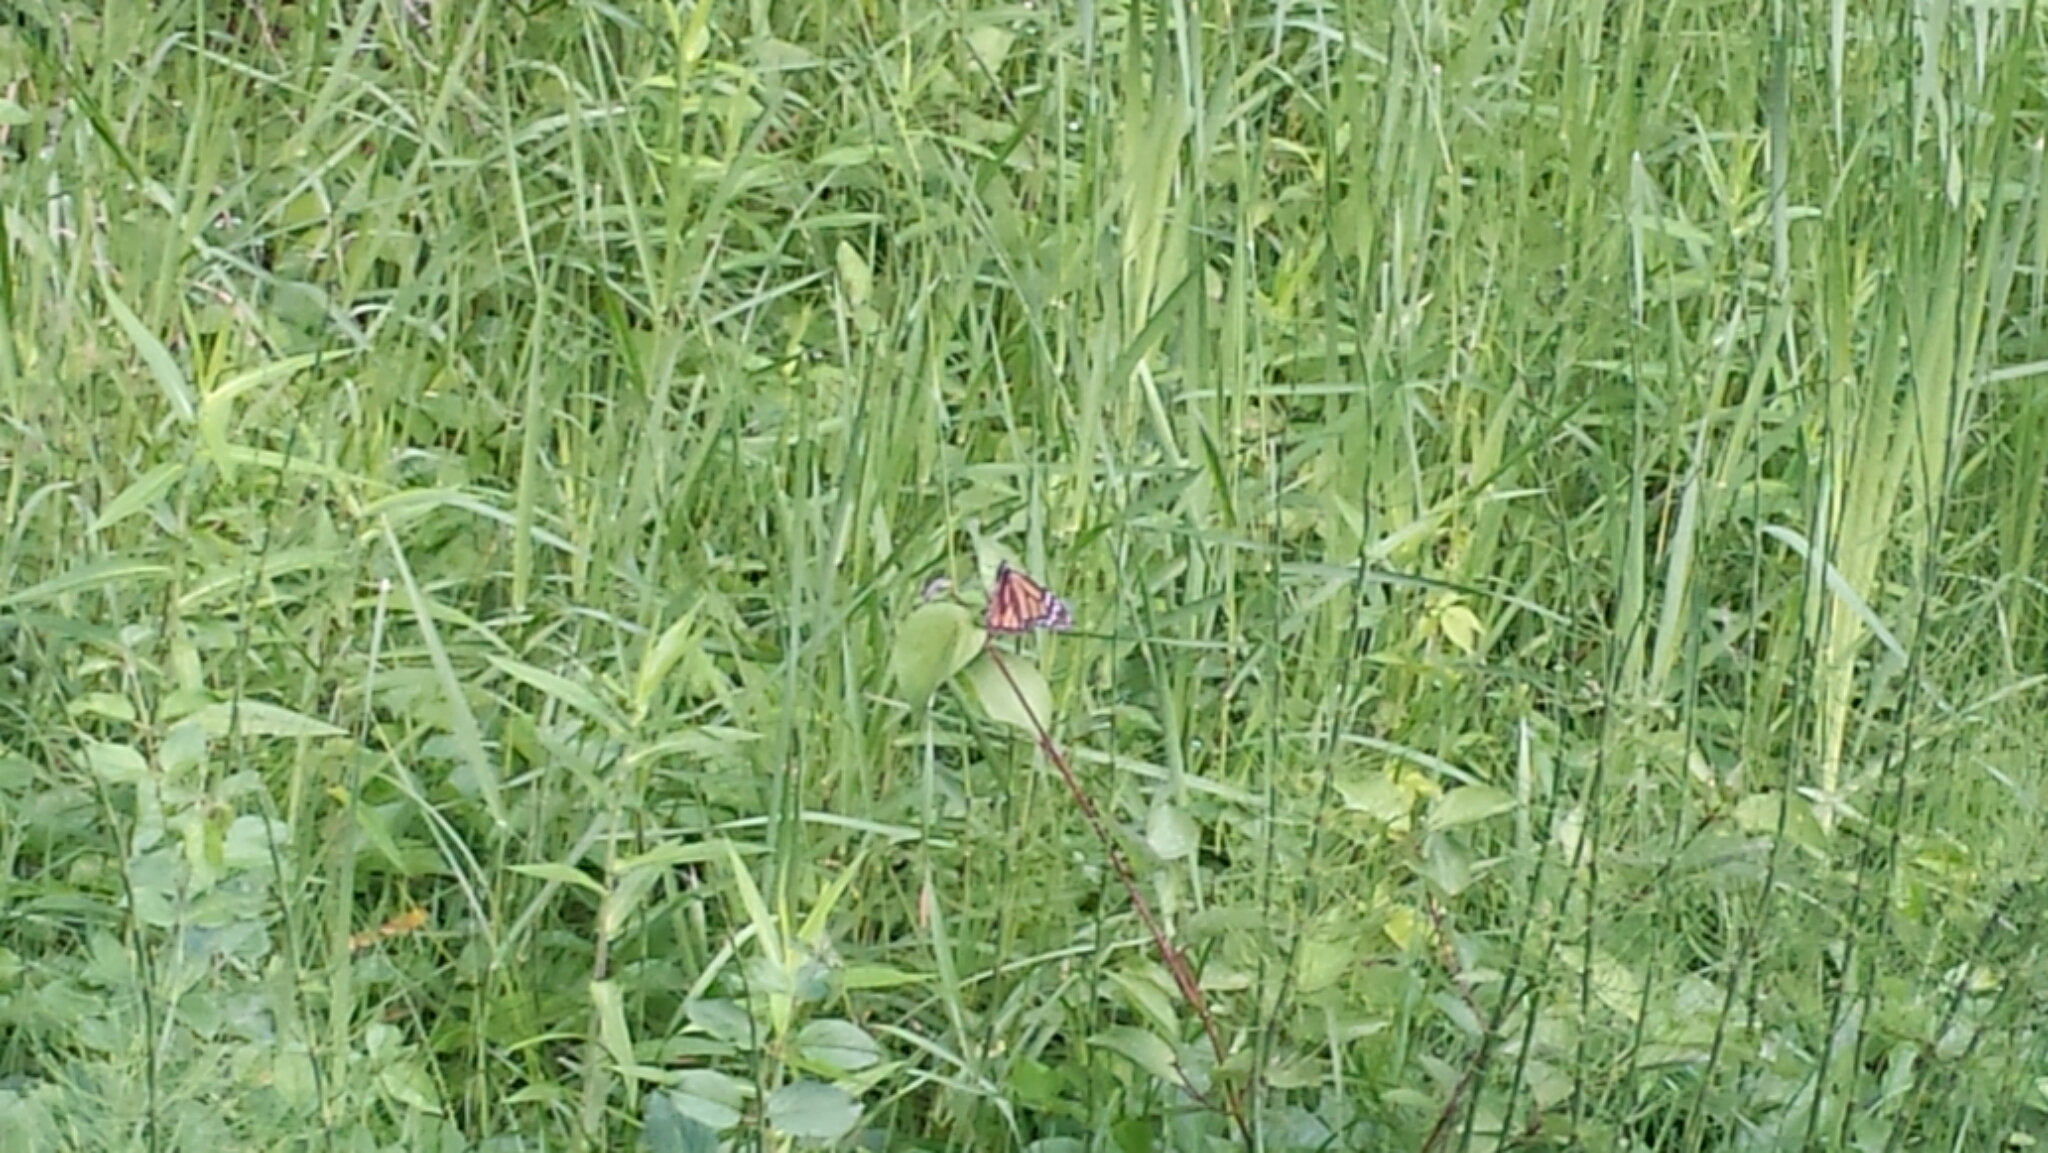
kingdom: Animalia
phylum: Arthropoda
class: Insecta
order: Lepidoptera
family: Nymphalidae
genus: Danaus
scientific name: Danaus plexippus
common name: Monarch
